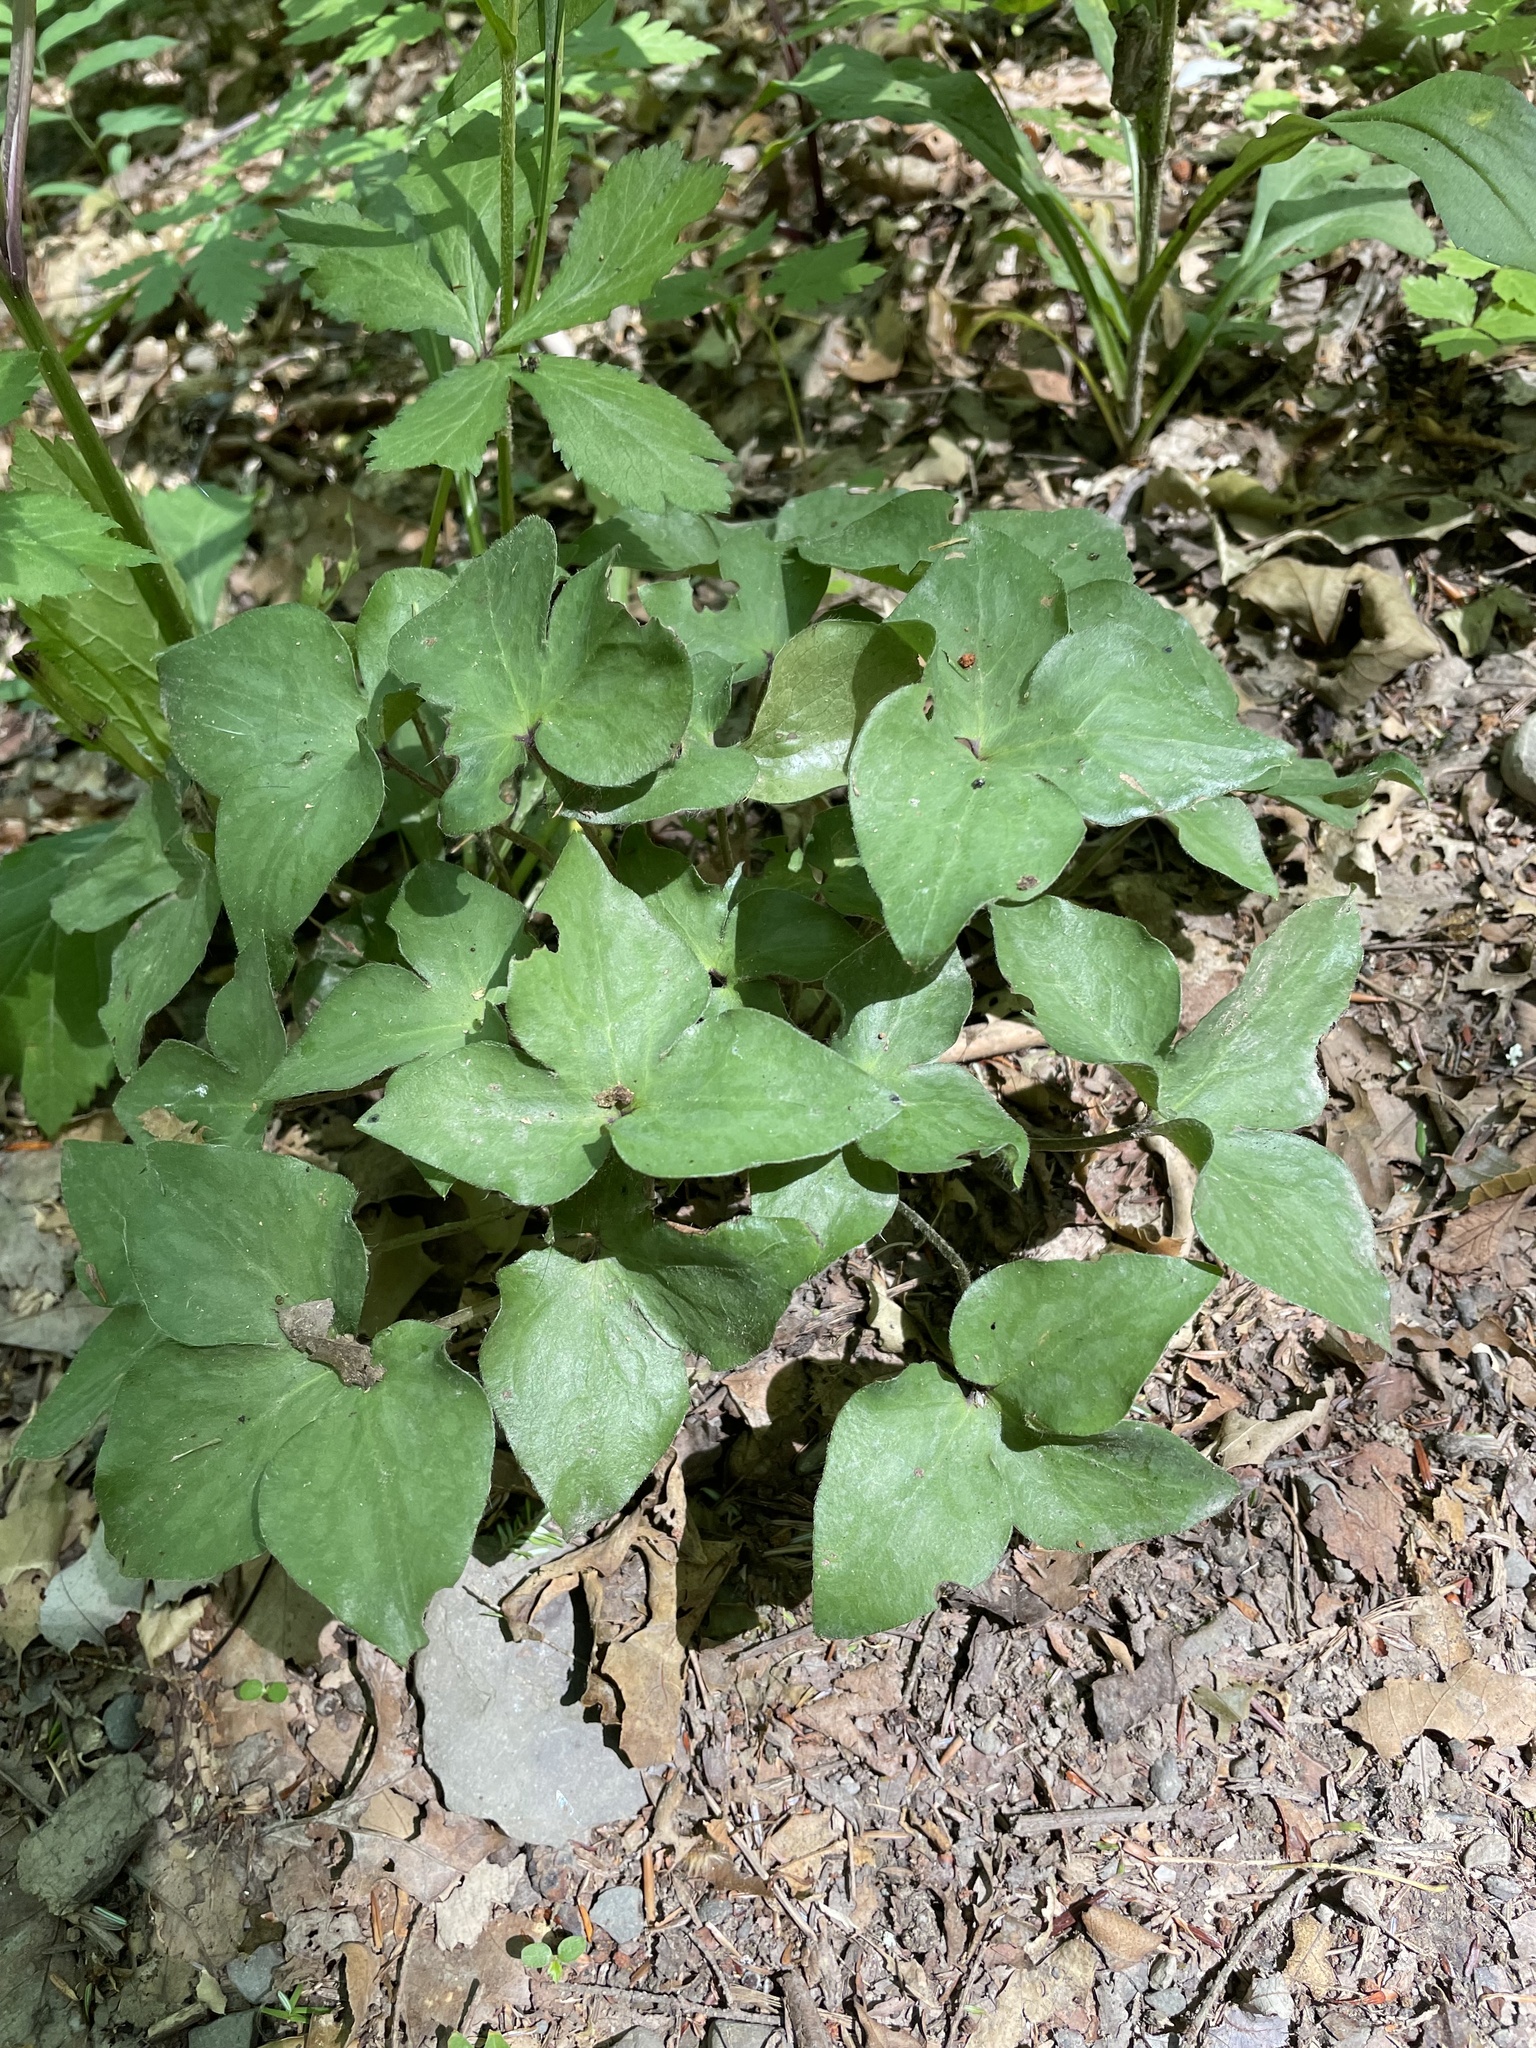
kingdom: Plantae
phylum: Tracheophyta
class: Magnoliopsida
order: Ranunculales
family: Ranunculaceae
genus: Hepatica
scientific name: Hepatica acutiloba
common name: Sharp-lobed hepatica
